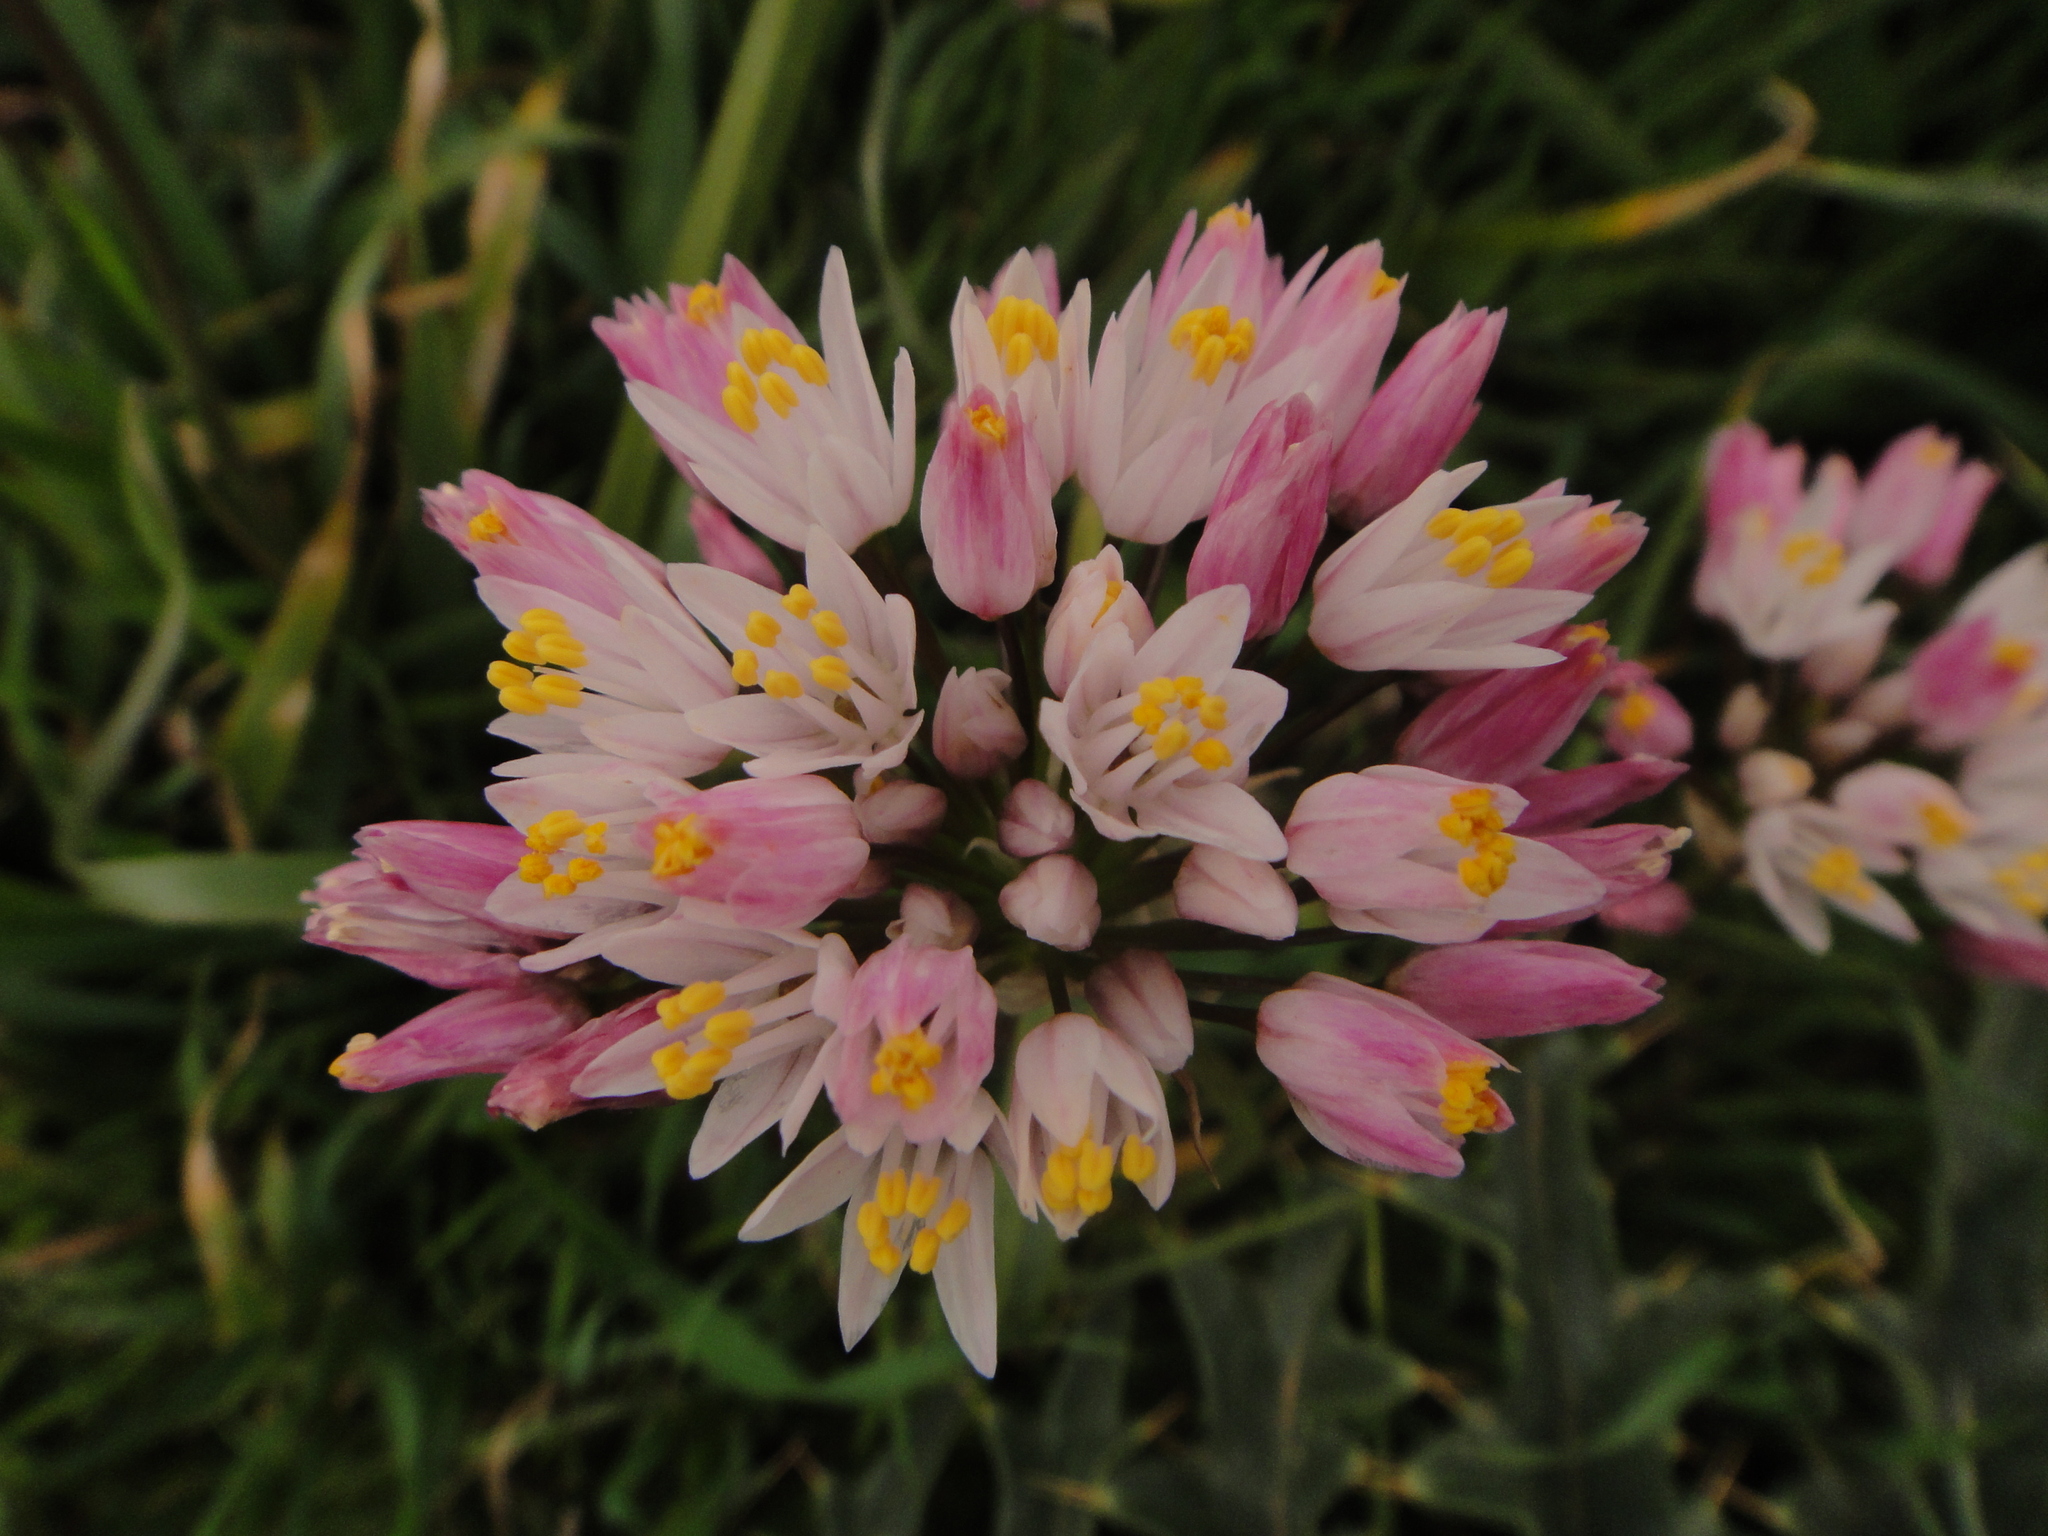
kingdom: Plantae
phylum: Tracheophyta
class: Liliopsida
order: Asparagales
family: Amaryllidaceae
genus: Allium
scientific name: Allium canariense
